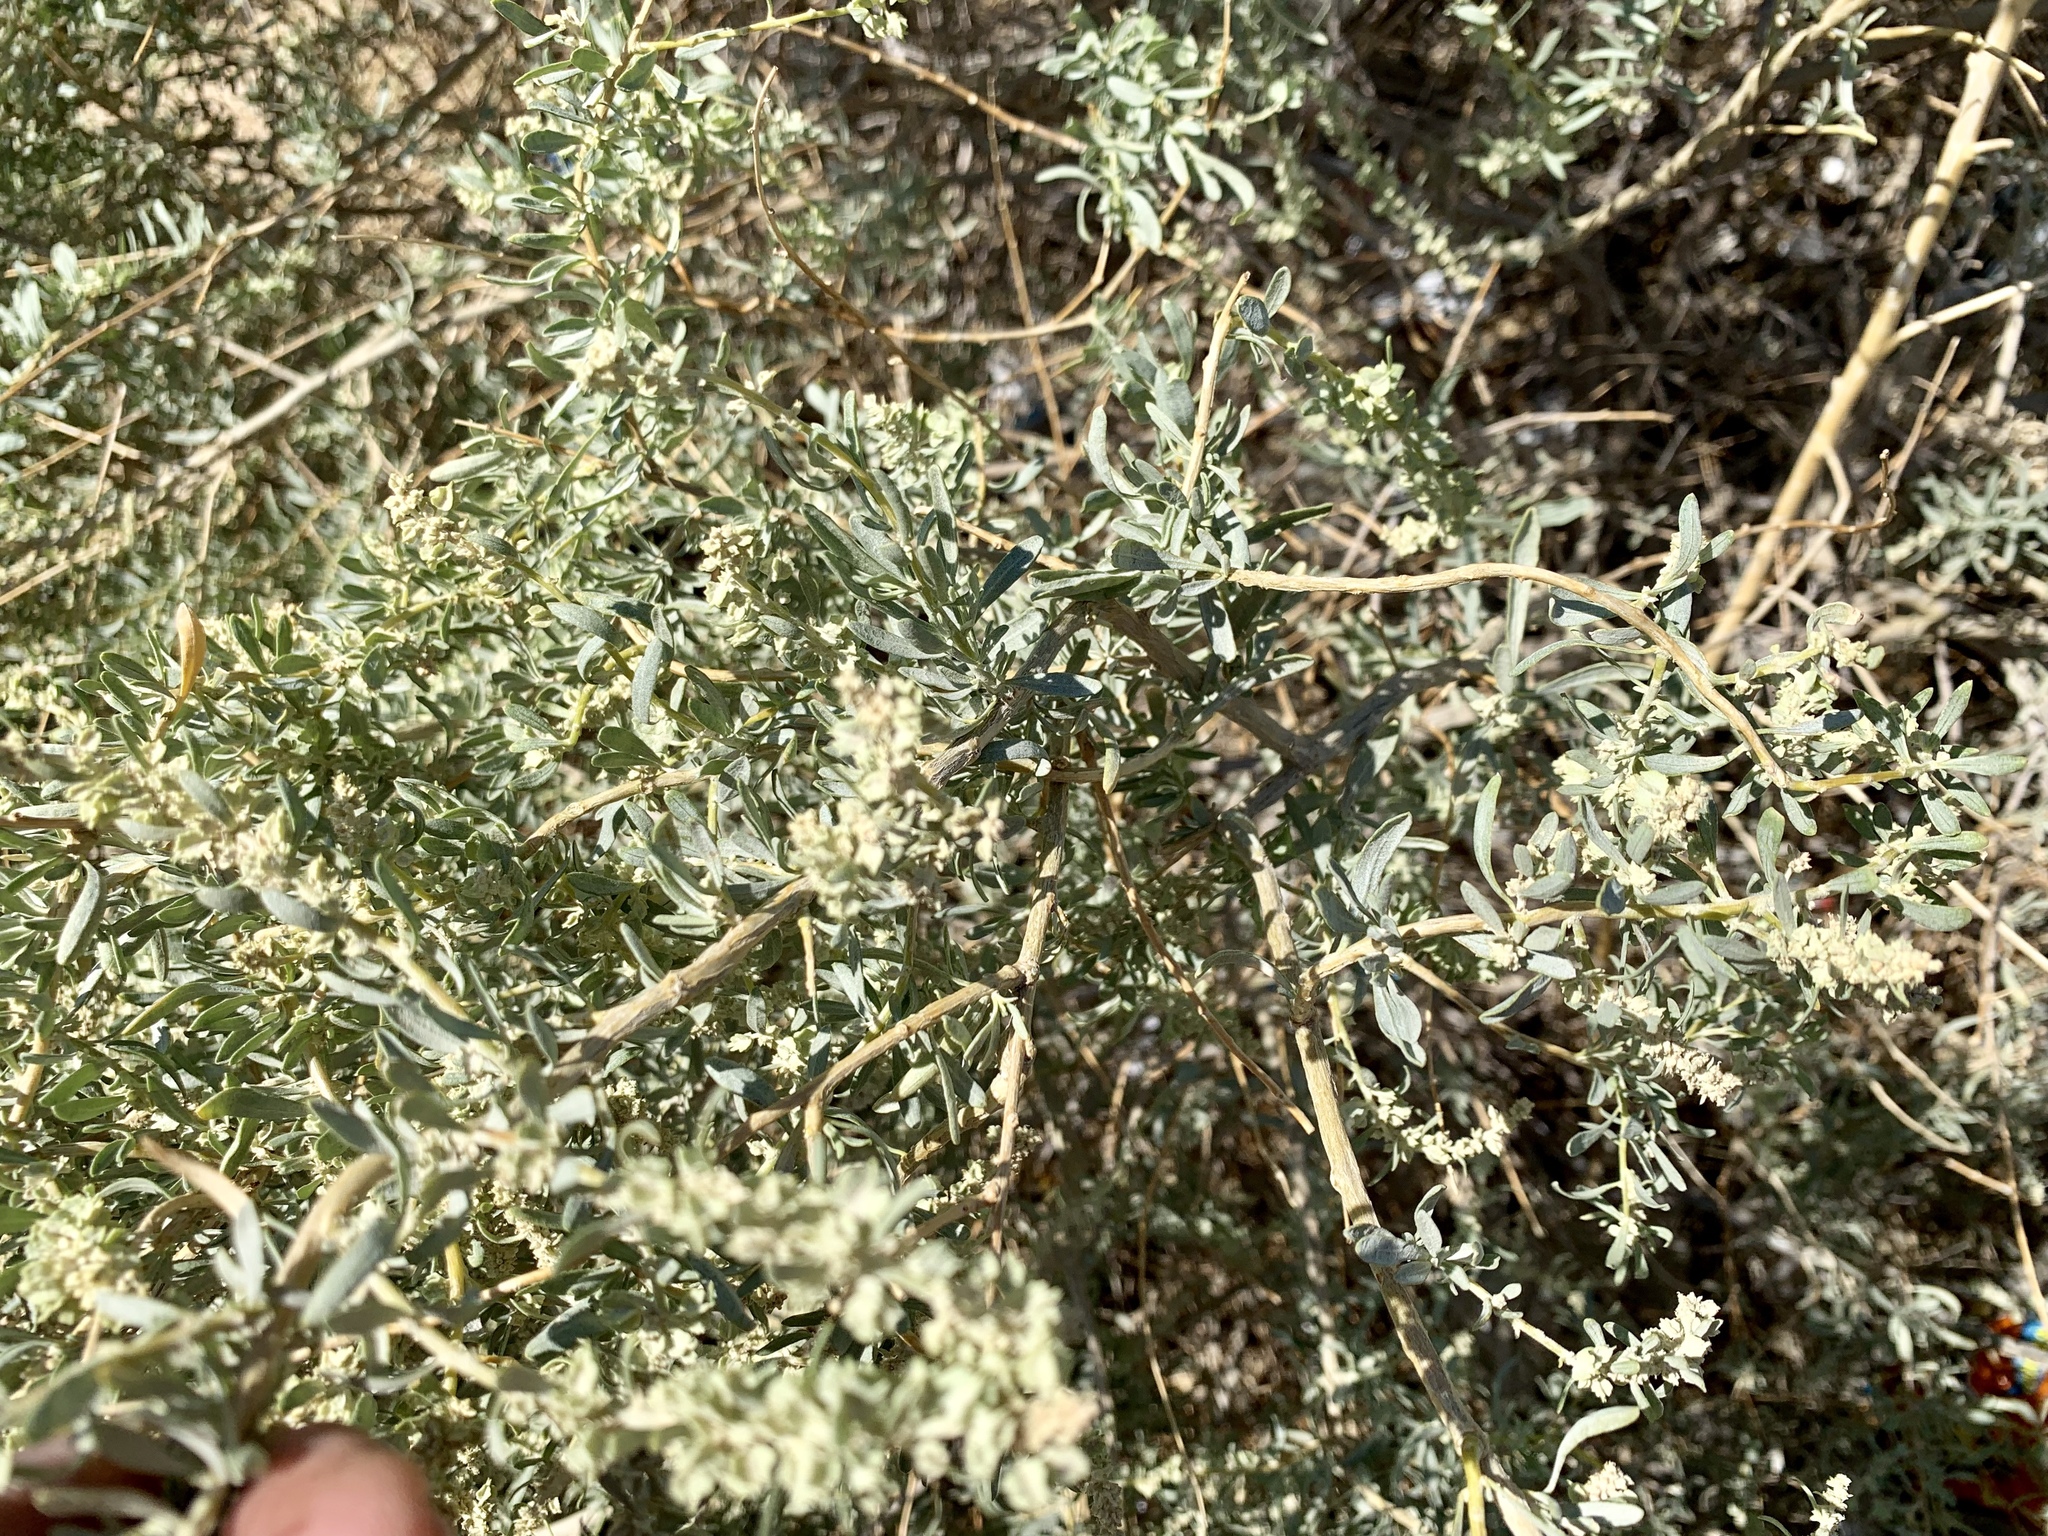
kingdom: Plantae
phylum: Tracheophyta
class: Magnoliopsida
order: Caryophyllales
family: Amaranthaceae
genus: Atriplex
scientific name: Atriplex canescens
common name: Four-wing saltbush
